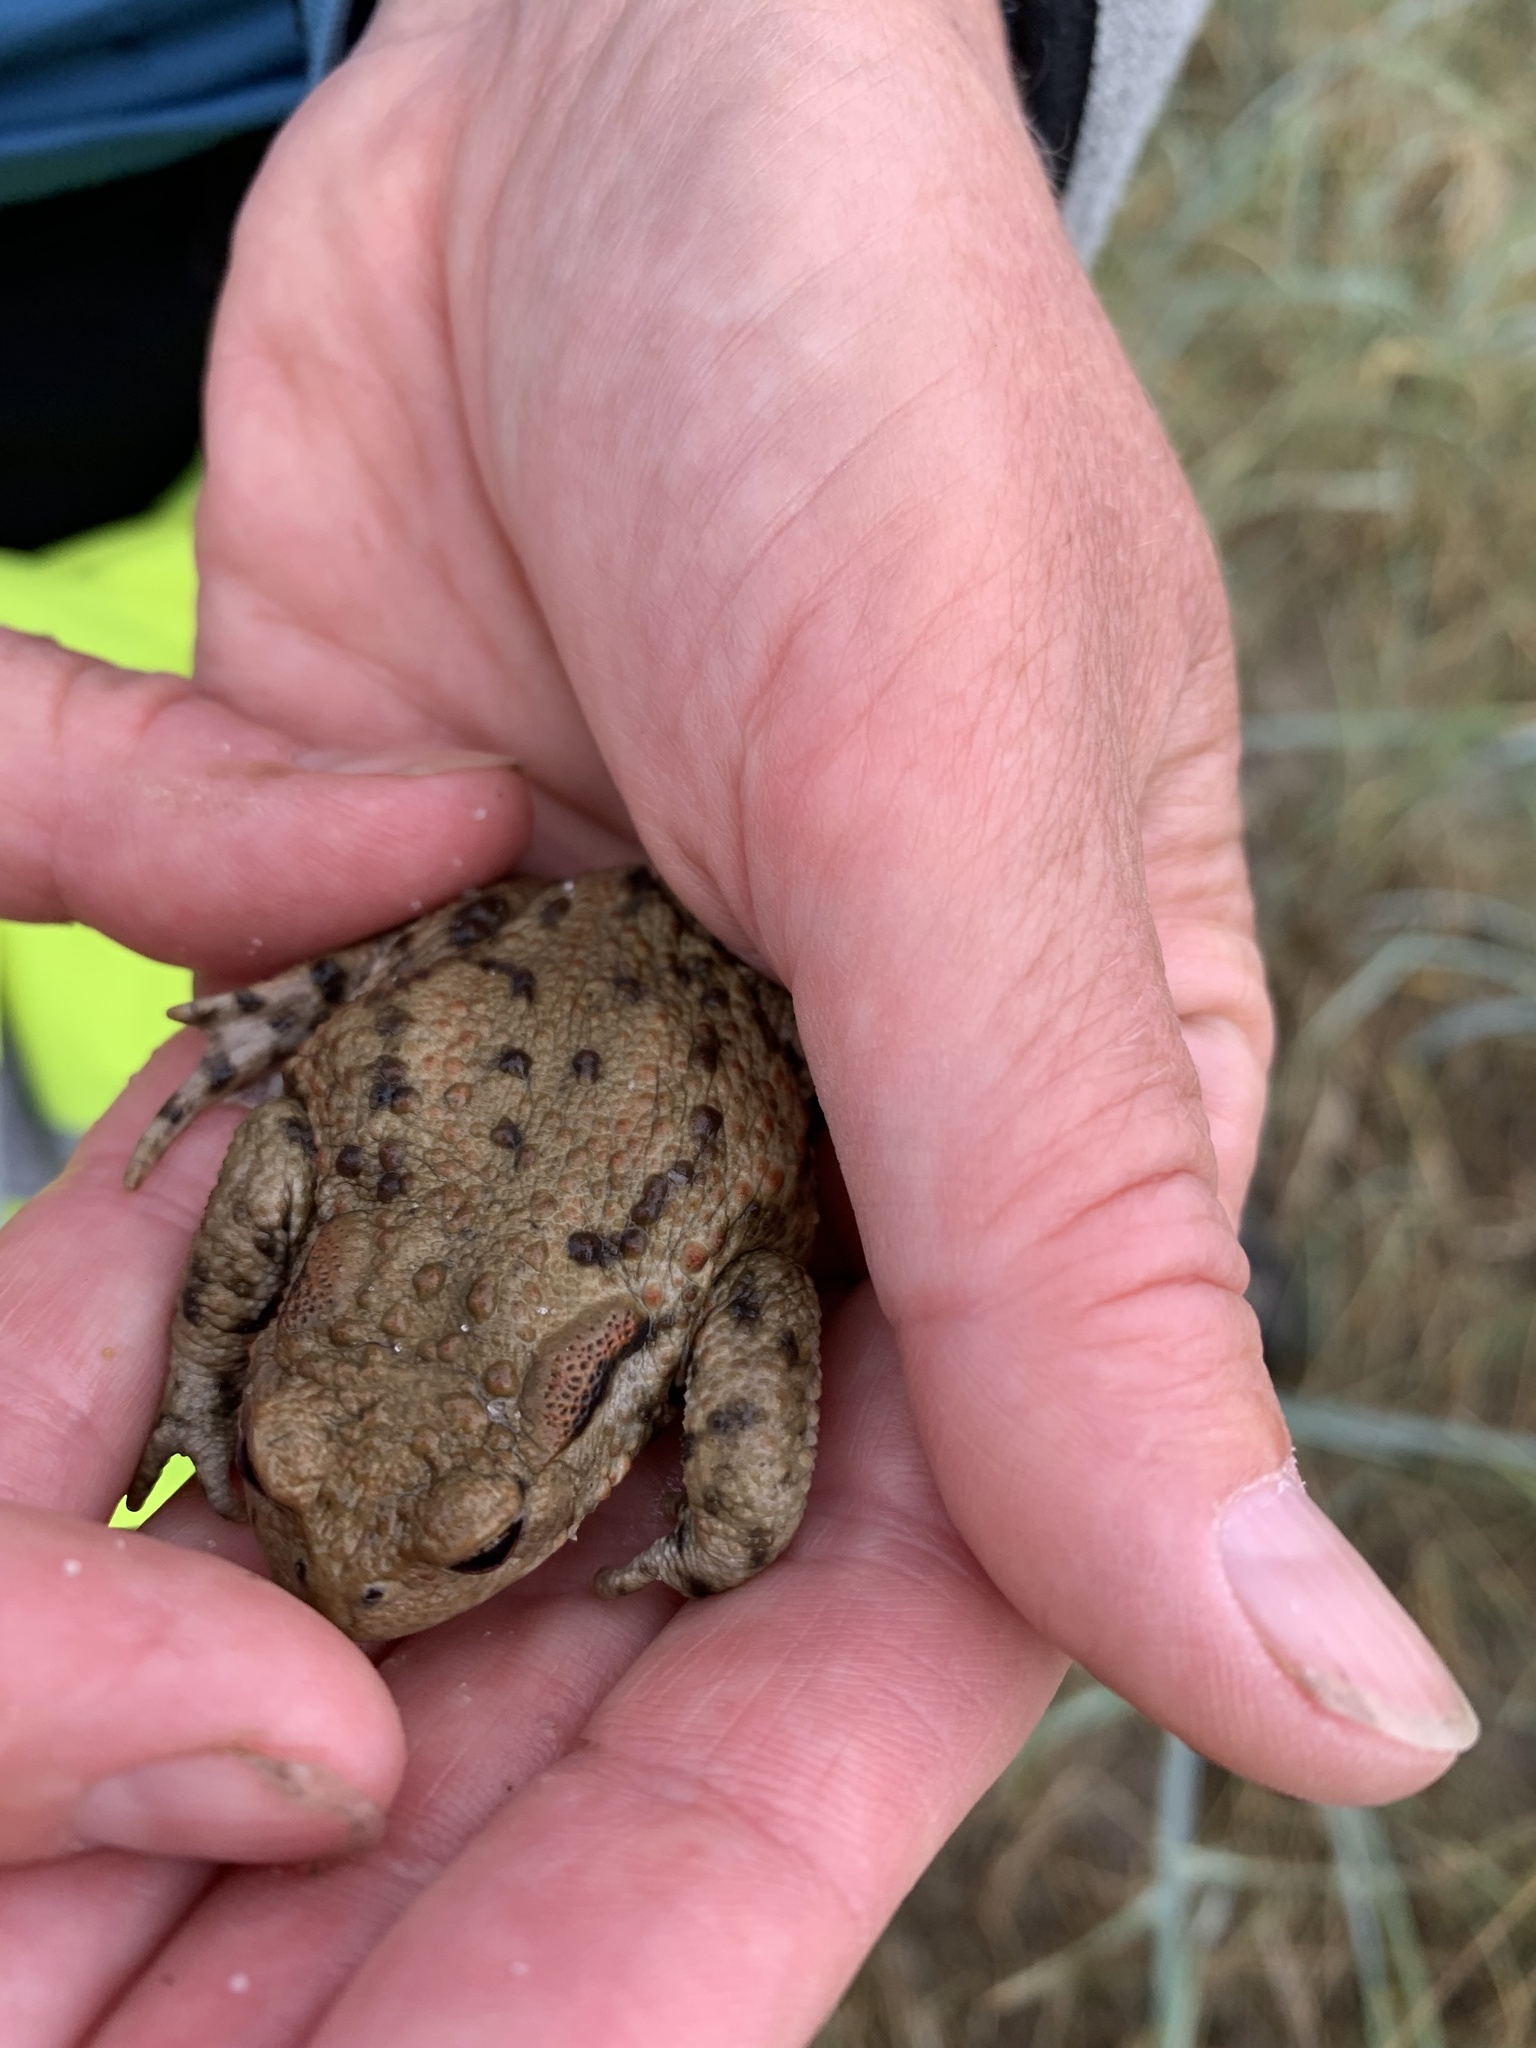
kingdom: Animalia
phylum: Chordata
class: Amphibia
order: Anura
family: Bufonidae
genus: Bufo
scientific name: Bufo bufo
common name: Common toad
